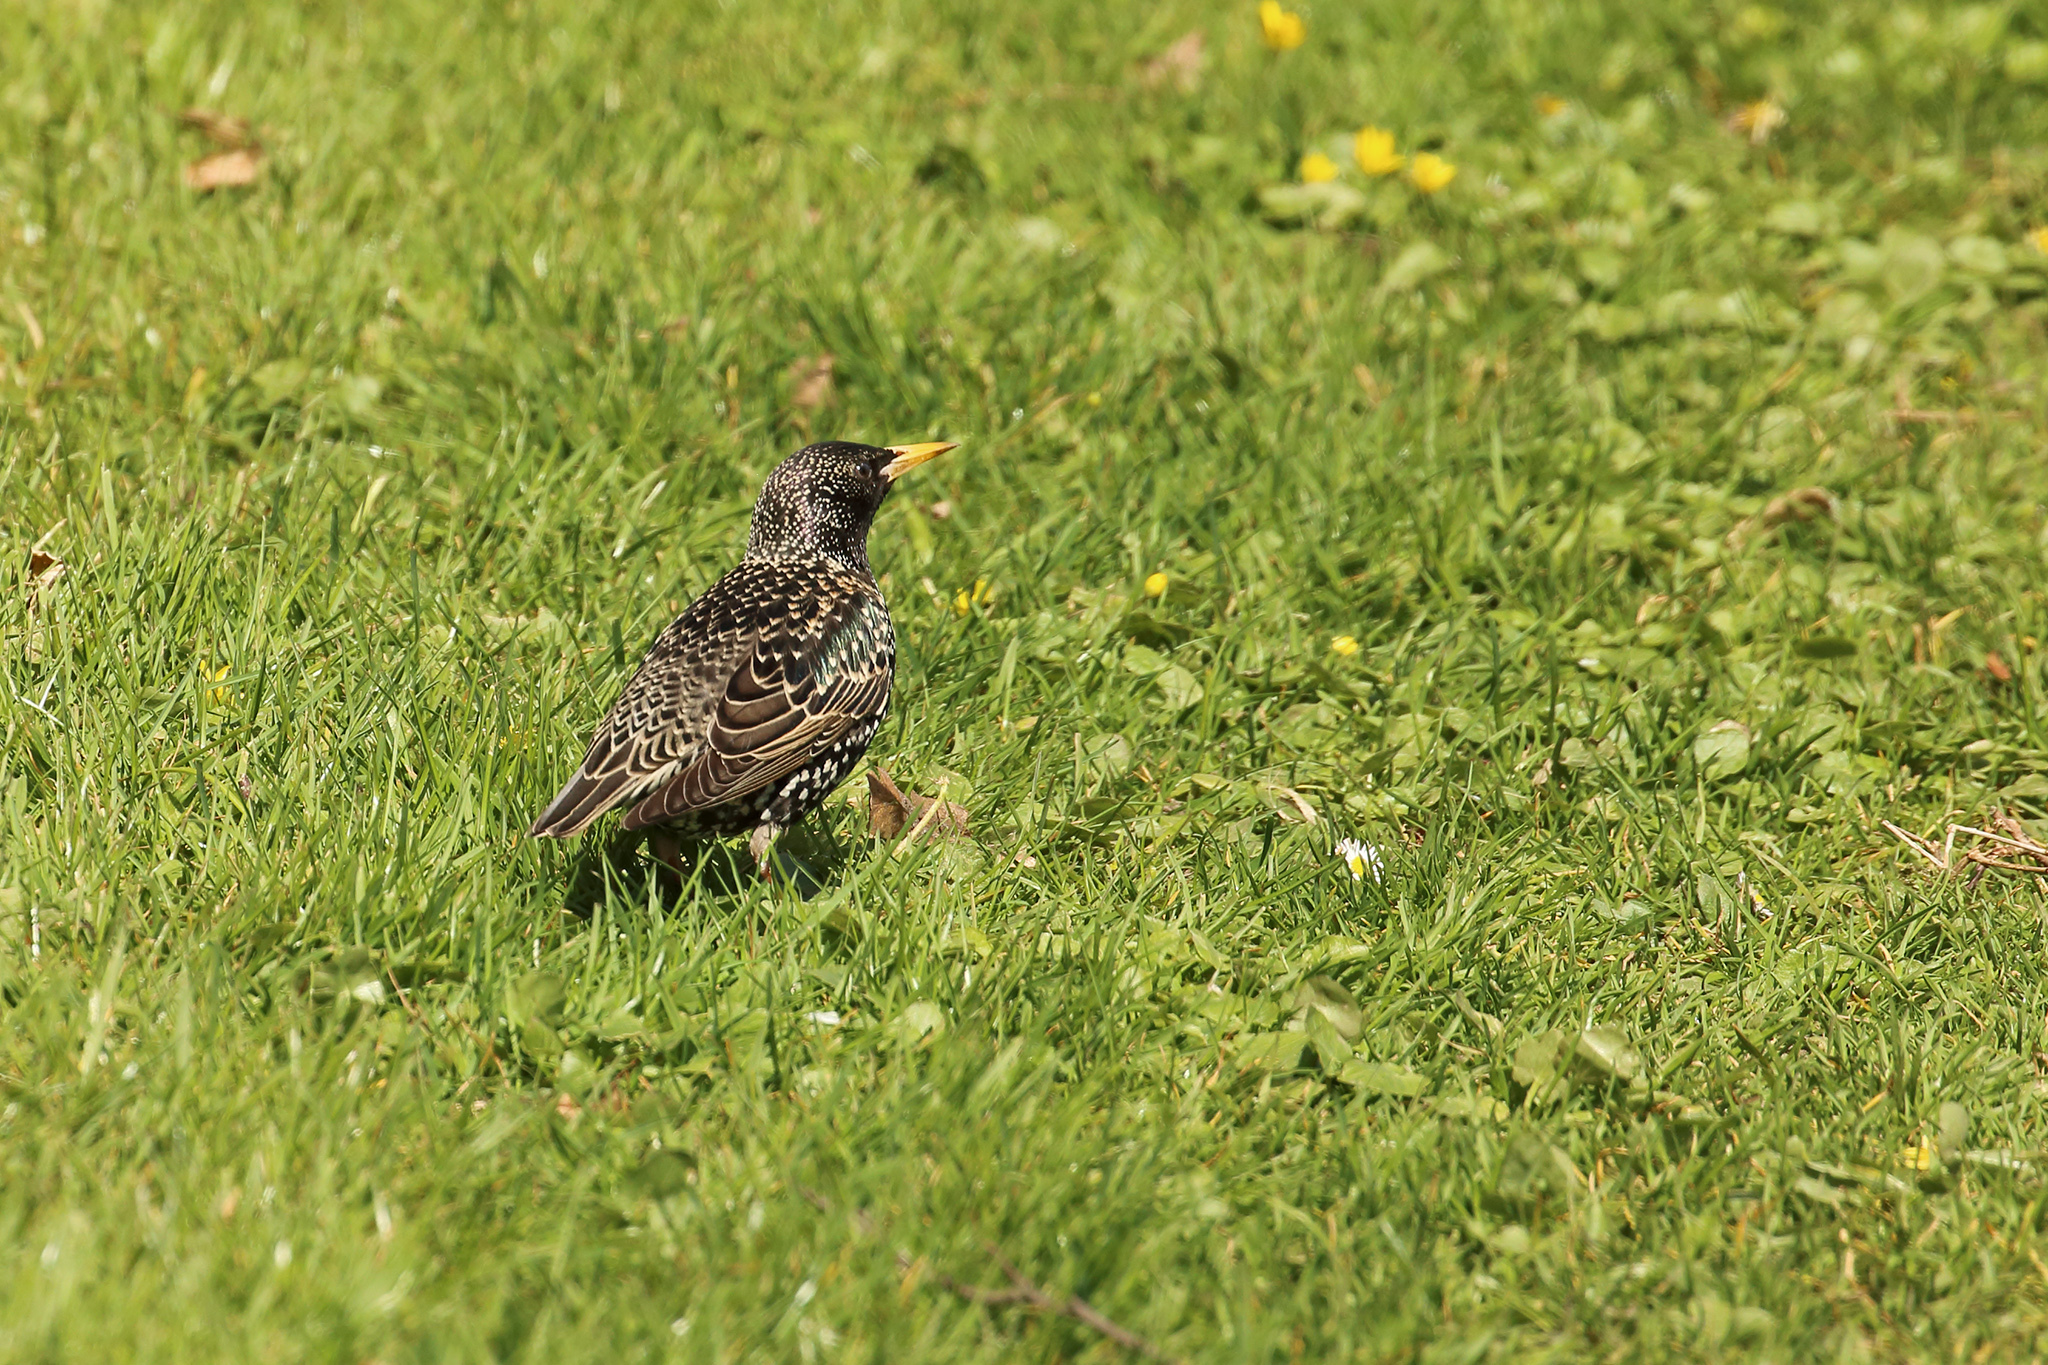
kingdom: Animalia
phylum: Chordata
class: Aves
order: Passeriformes
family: Sturnidae
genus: Sturnus
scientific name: Sturnus vulgaris
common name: Common starling
